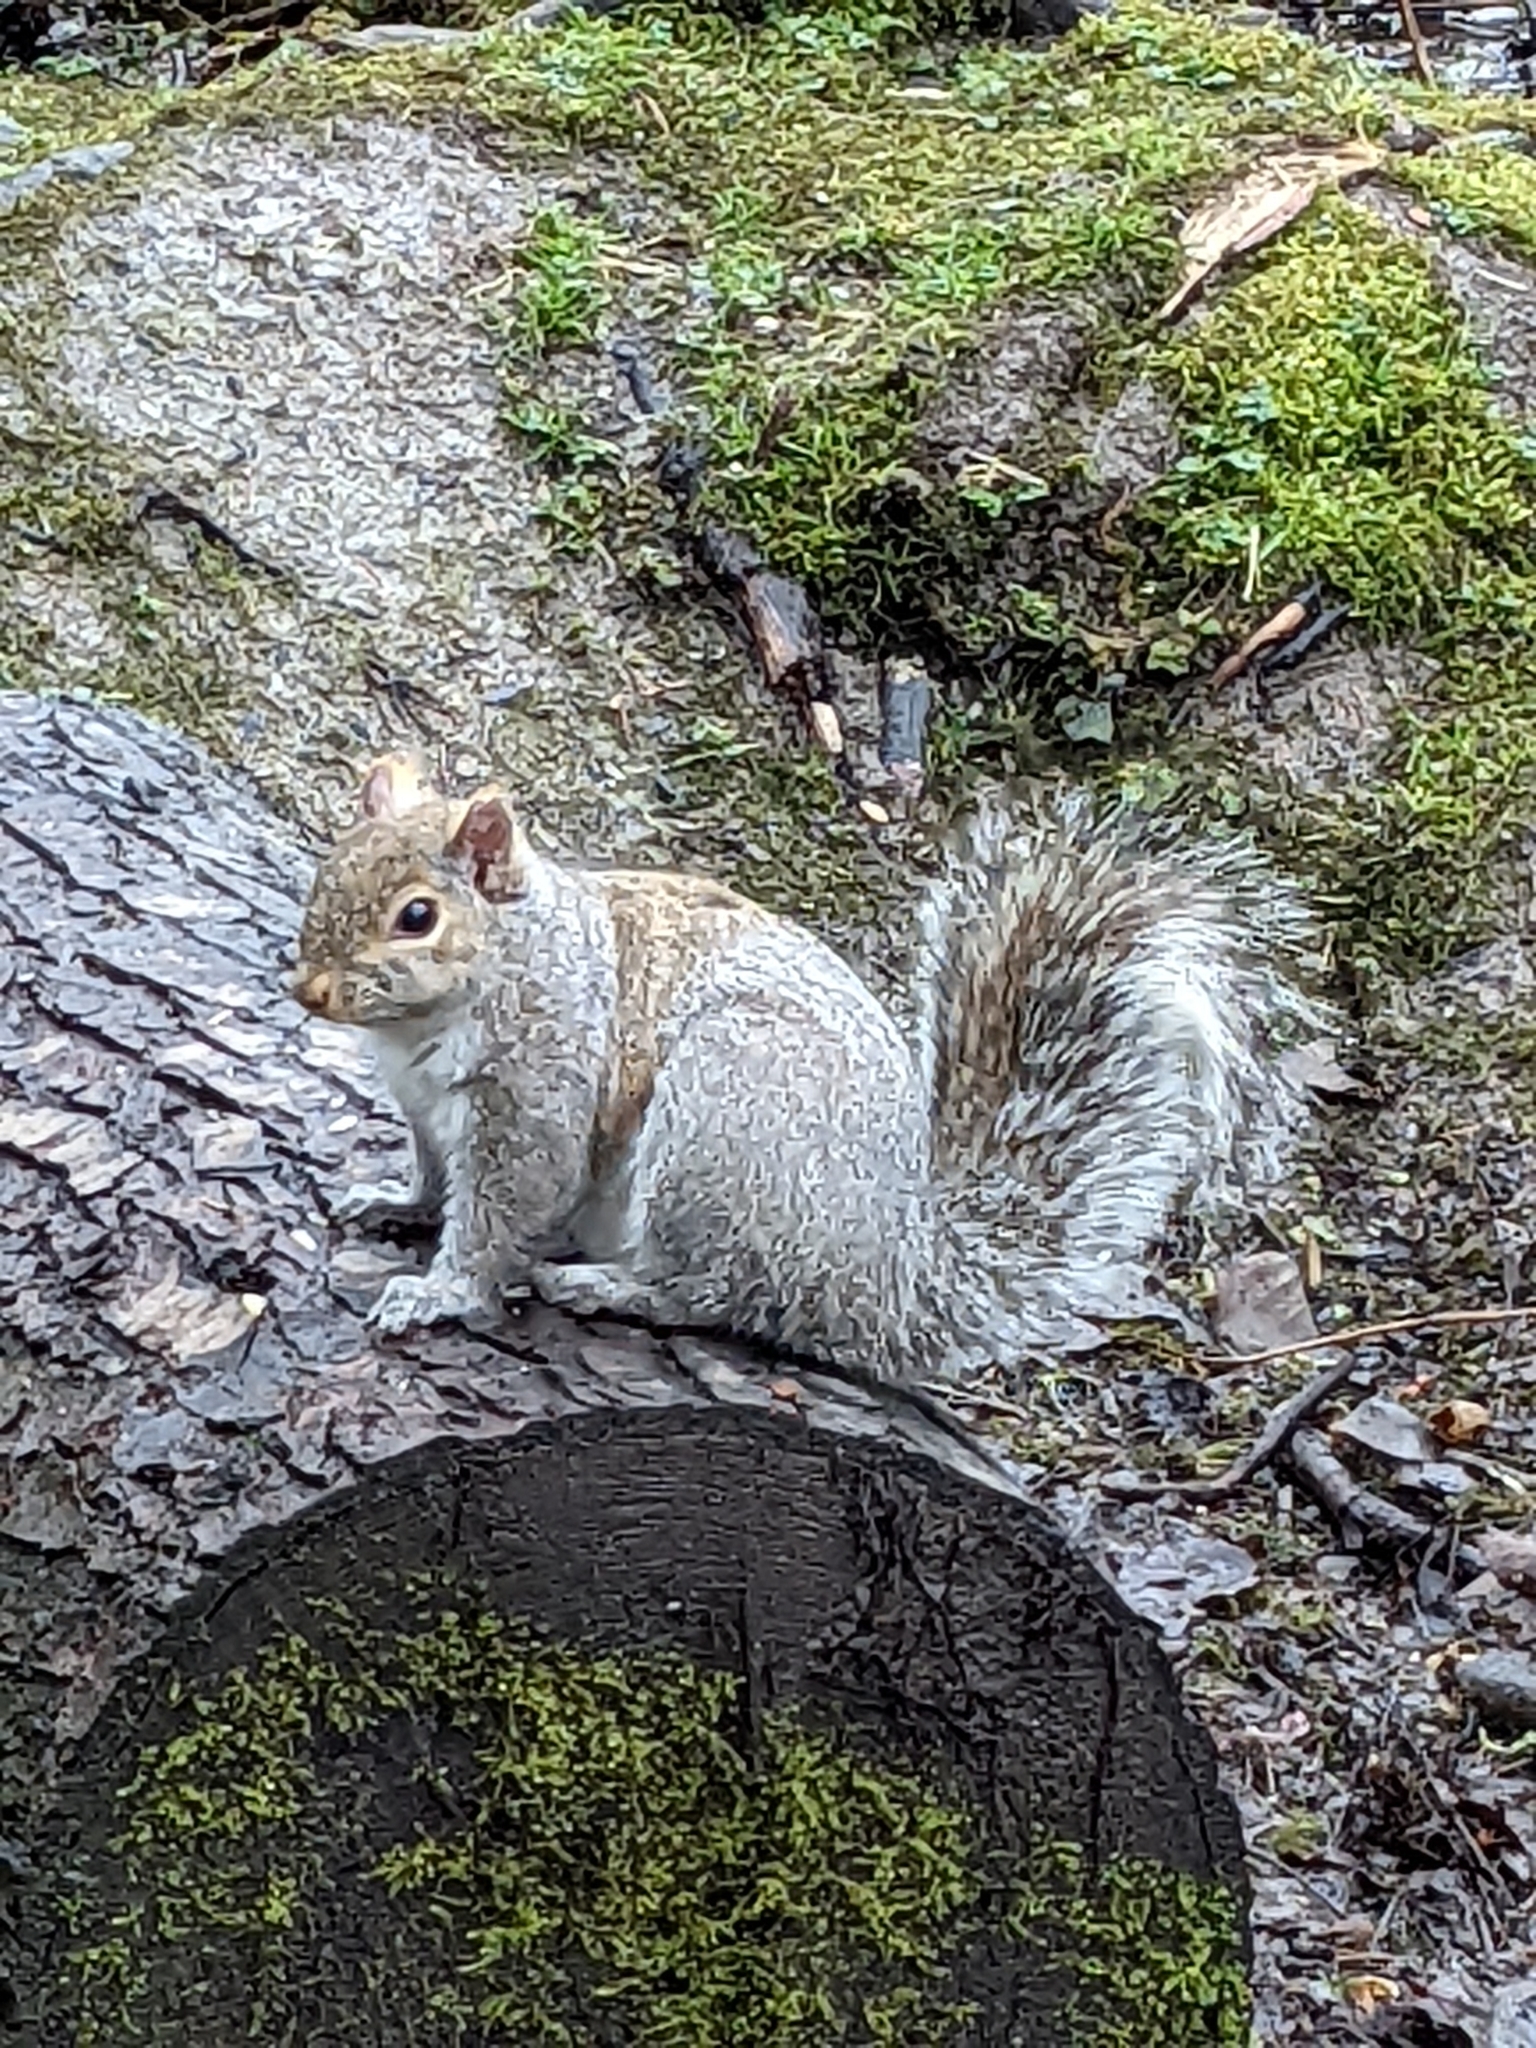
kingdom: Animalia
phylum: Chordata
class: Mammalia
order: Rodentia
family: Sciuridae
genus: Sciurus
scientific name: Sciurus carolinensis
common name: Eastern gray squirrel
